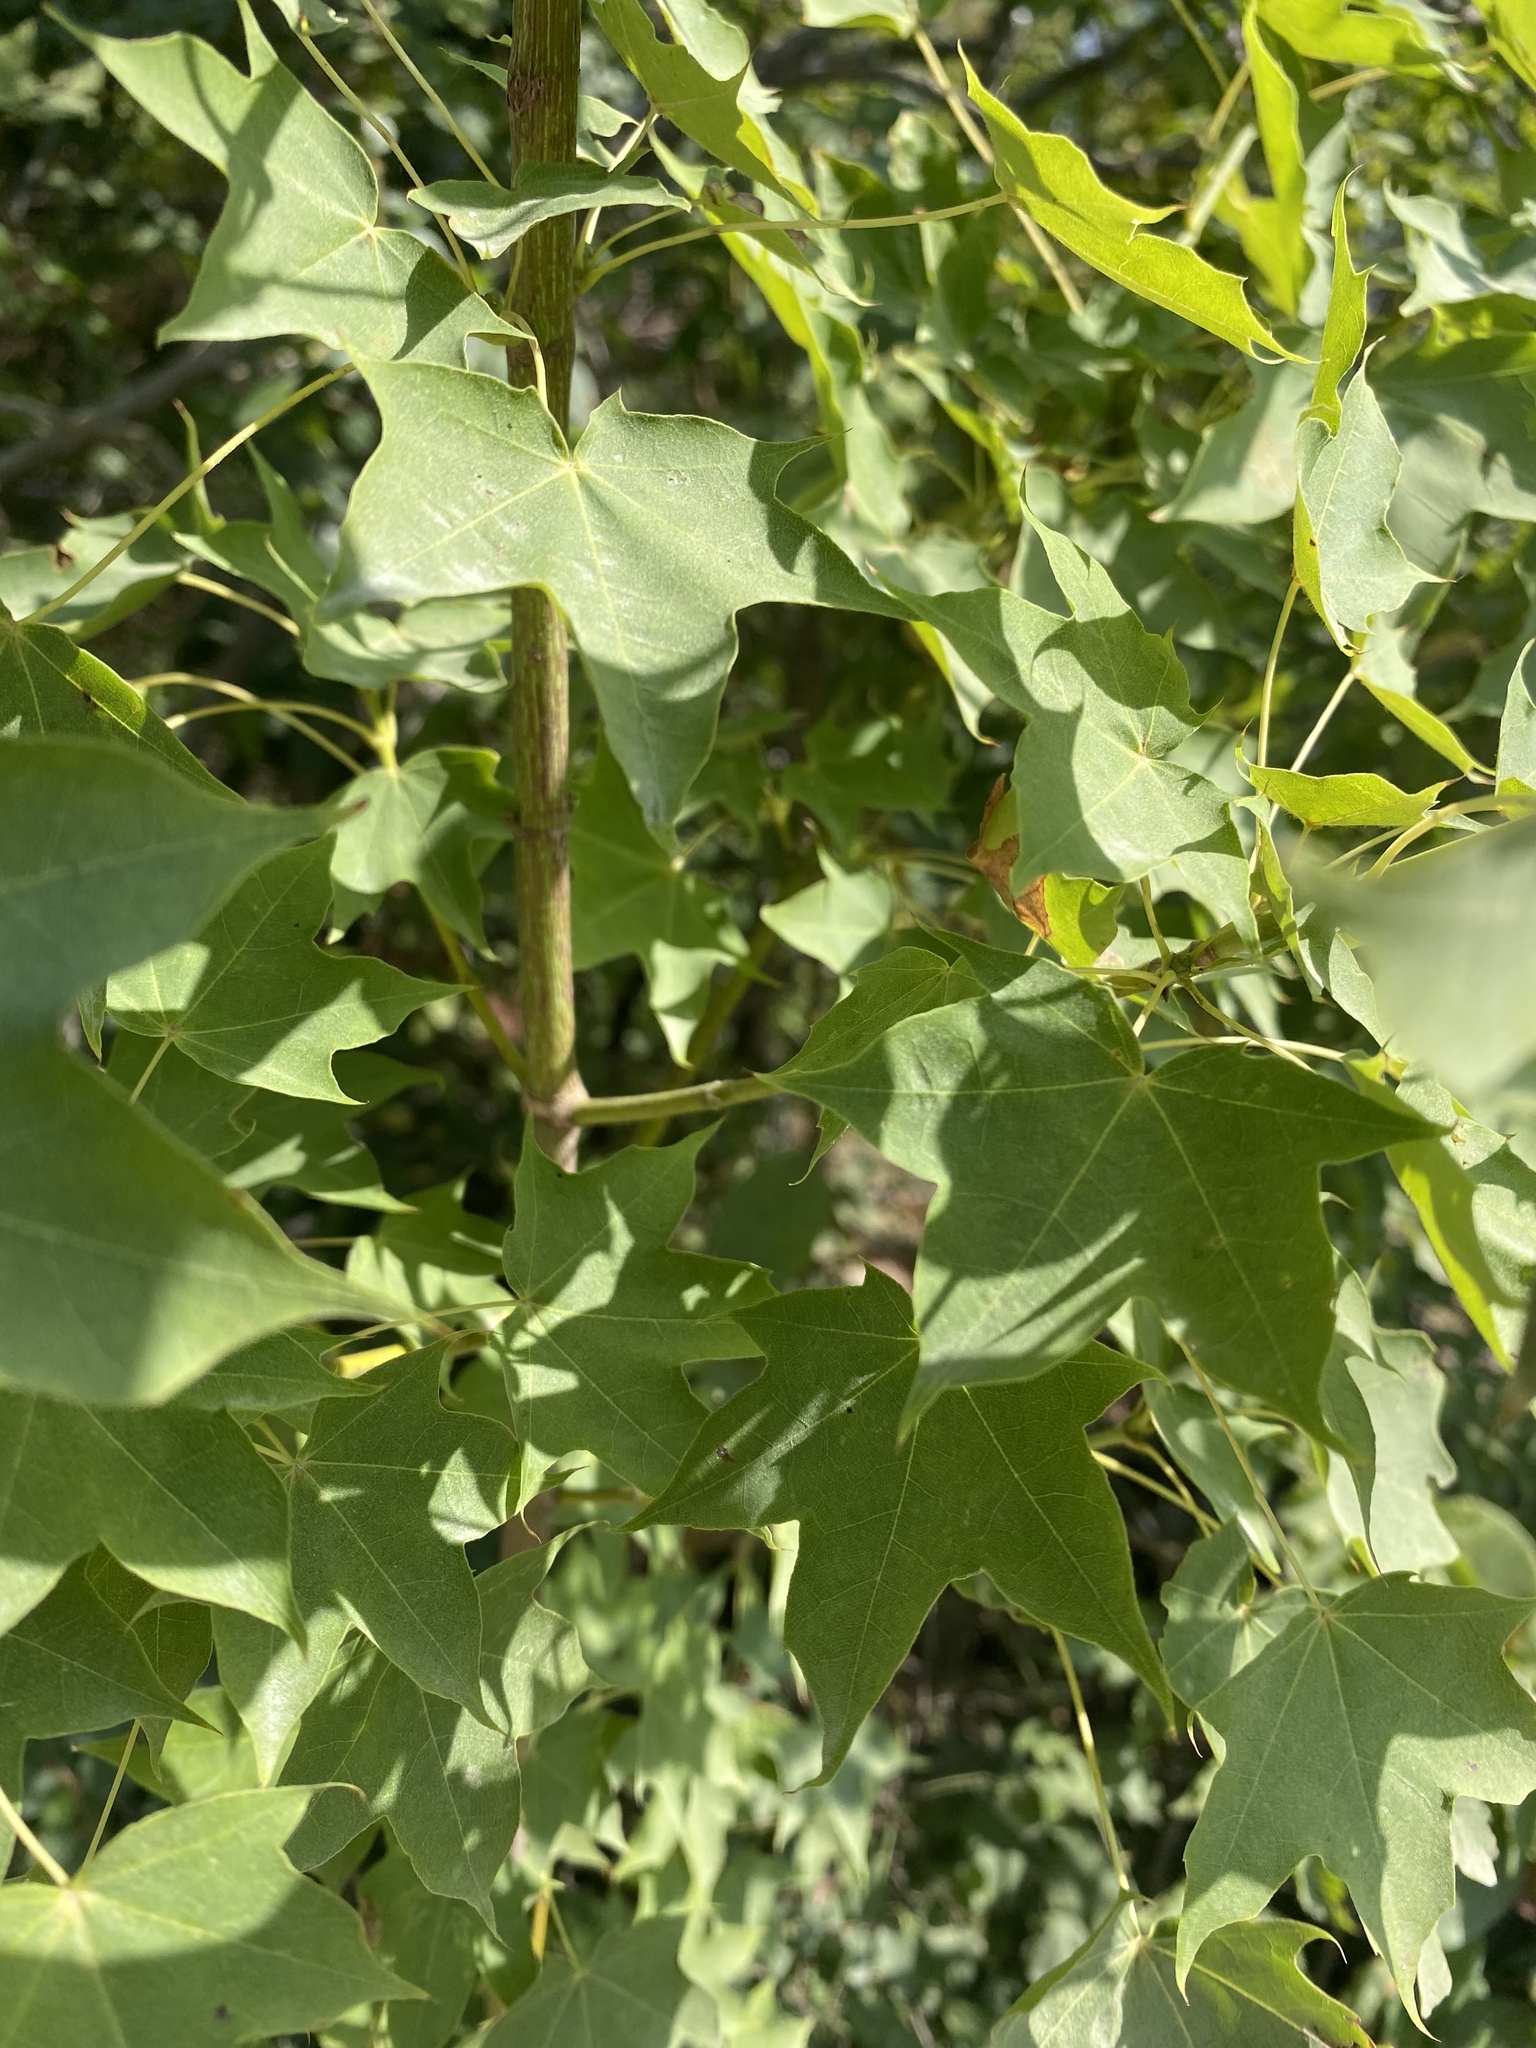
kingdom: Plantae
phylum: Tracheophyta
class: Magnoliopsida
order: Sapindales
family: Sapindaceae
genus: Acer
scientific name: Acer cappadocicum
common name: Cappadocian maple
